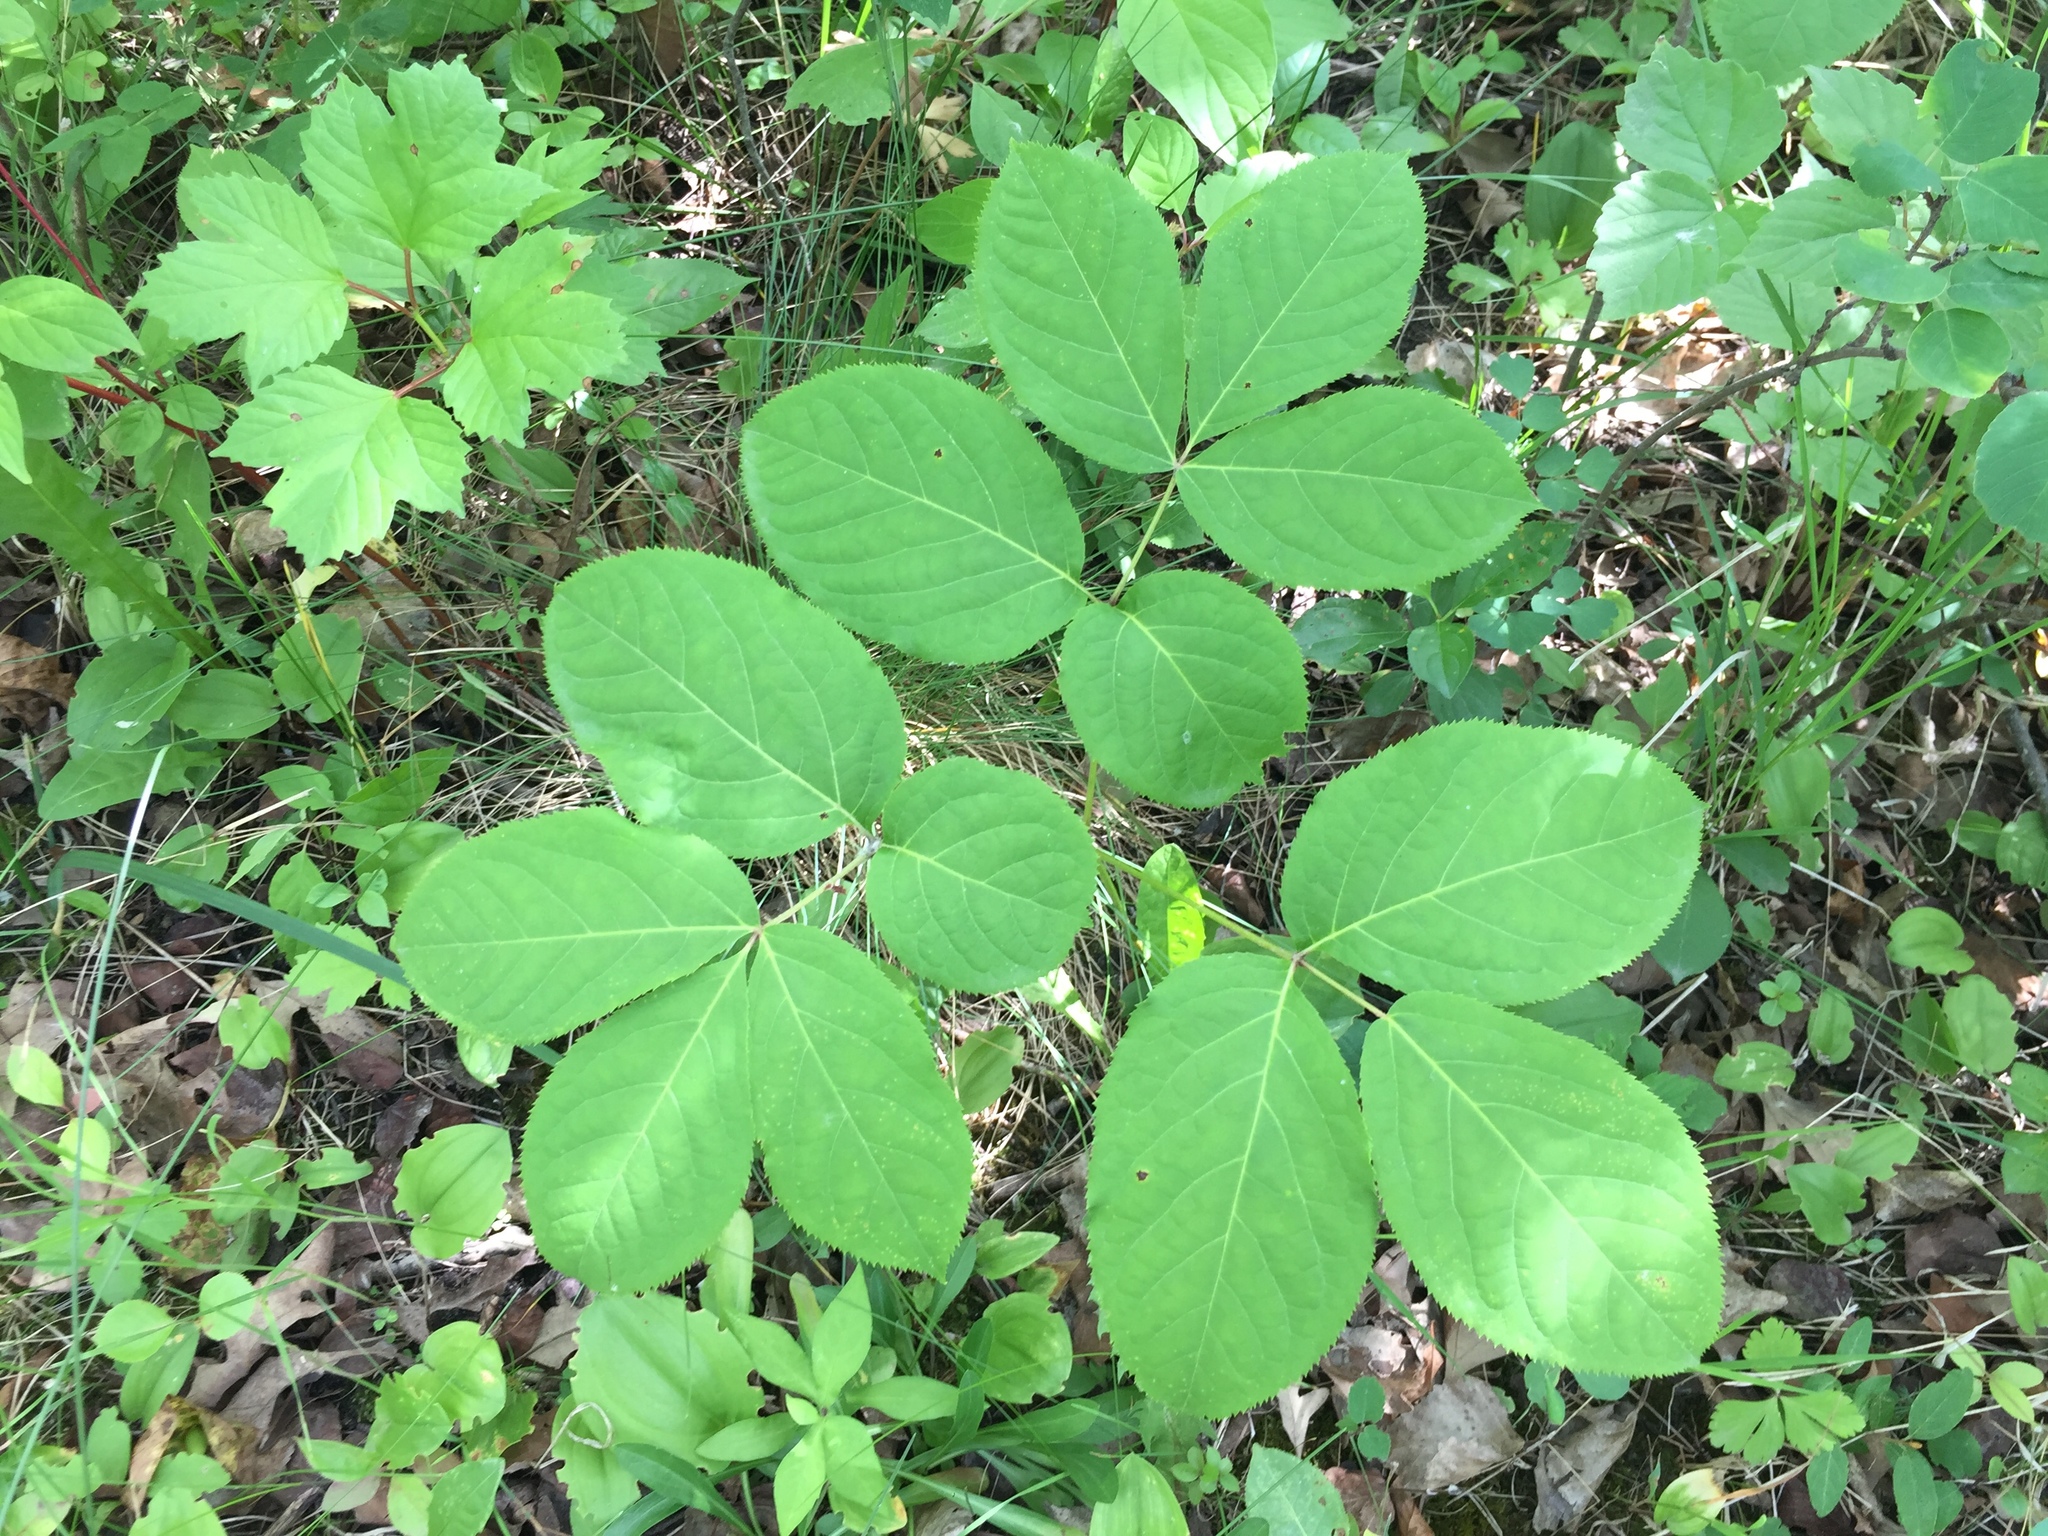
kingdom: Plantae
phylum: Tracheophyta
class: Magnoliopsida
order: Apiales
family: Araliaceae
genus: Aralia
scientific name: Aralia nudicaulis
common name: Wild sarsaparilla
